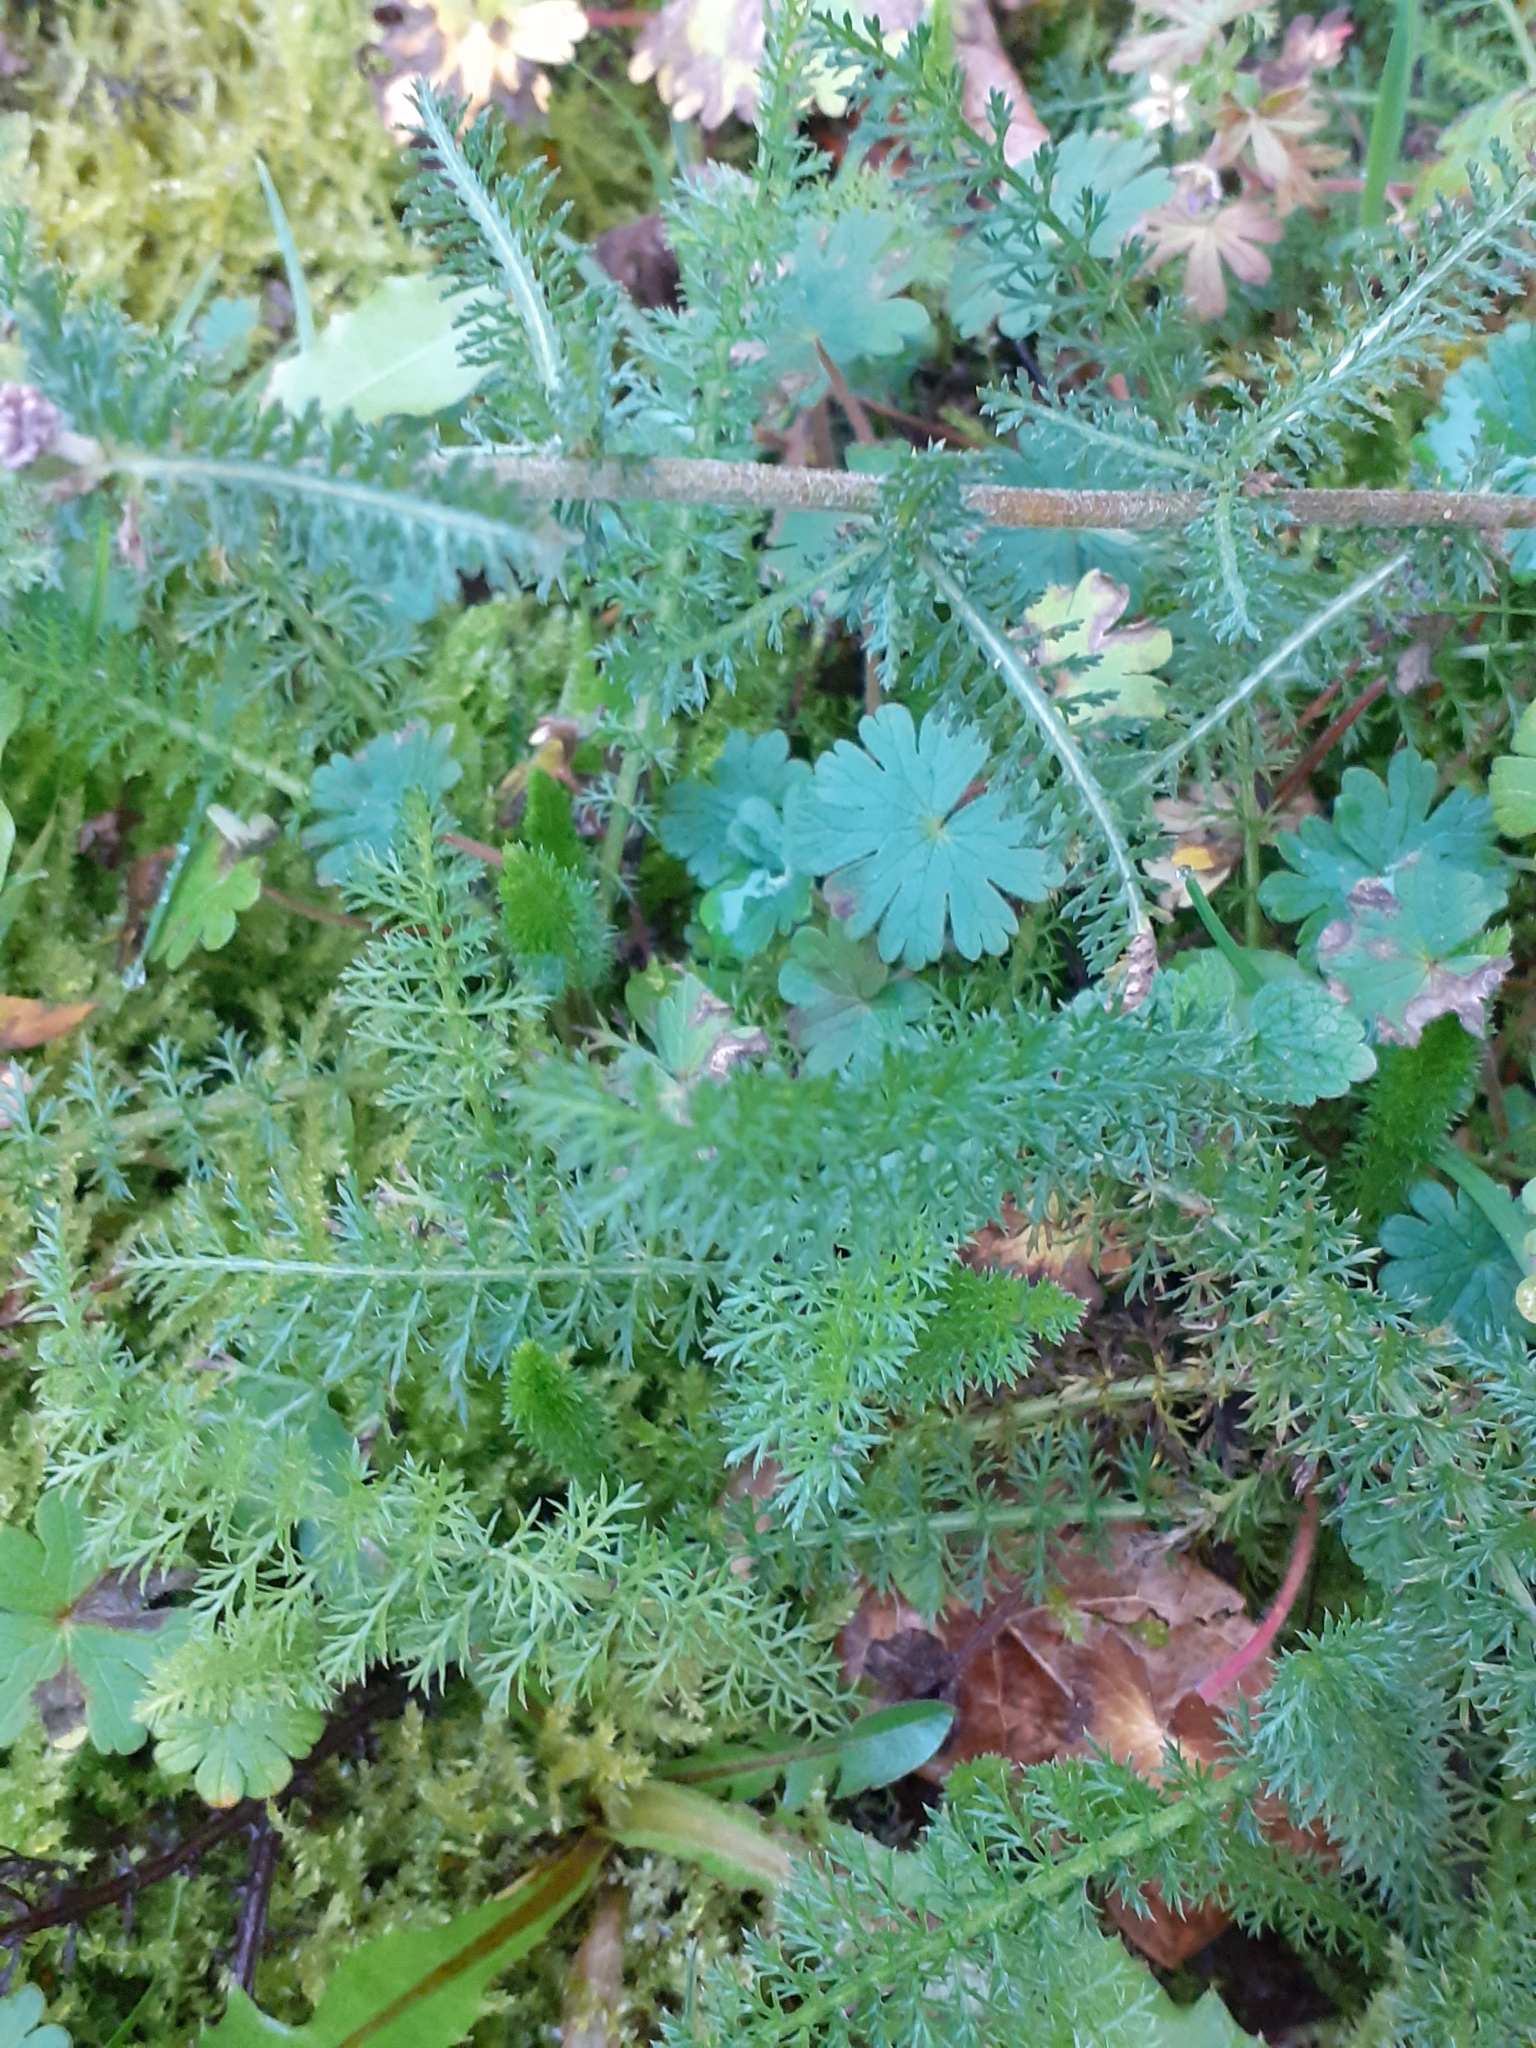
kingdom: Plantae
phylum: Tracheophyta
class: Magnoliopsida
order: Asterales
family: Asteraceae
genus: Achillea
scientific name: Achillea millefolium
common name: Yarrow
